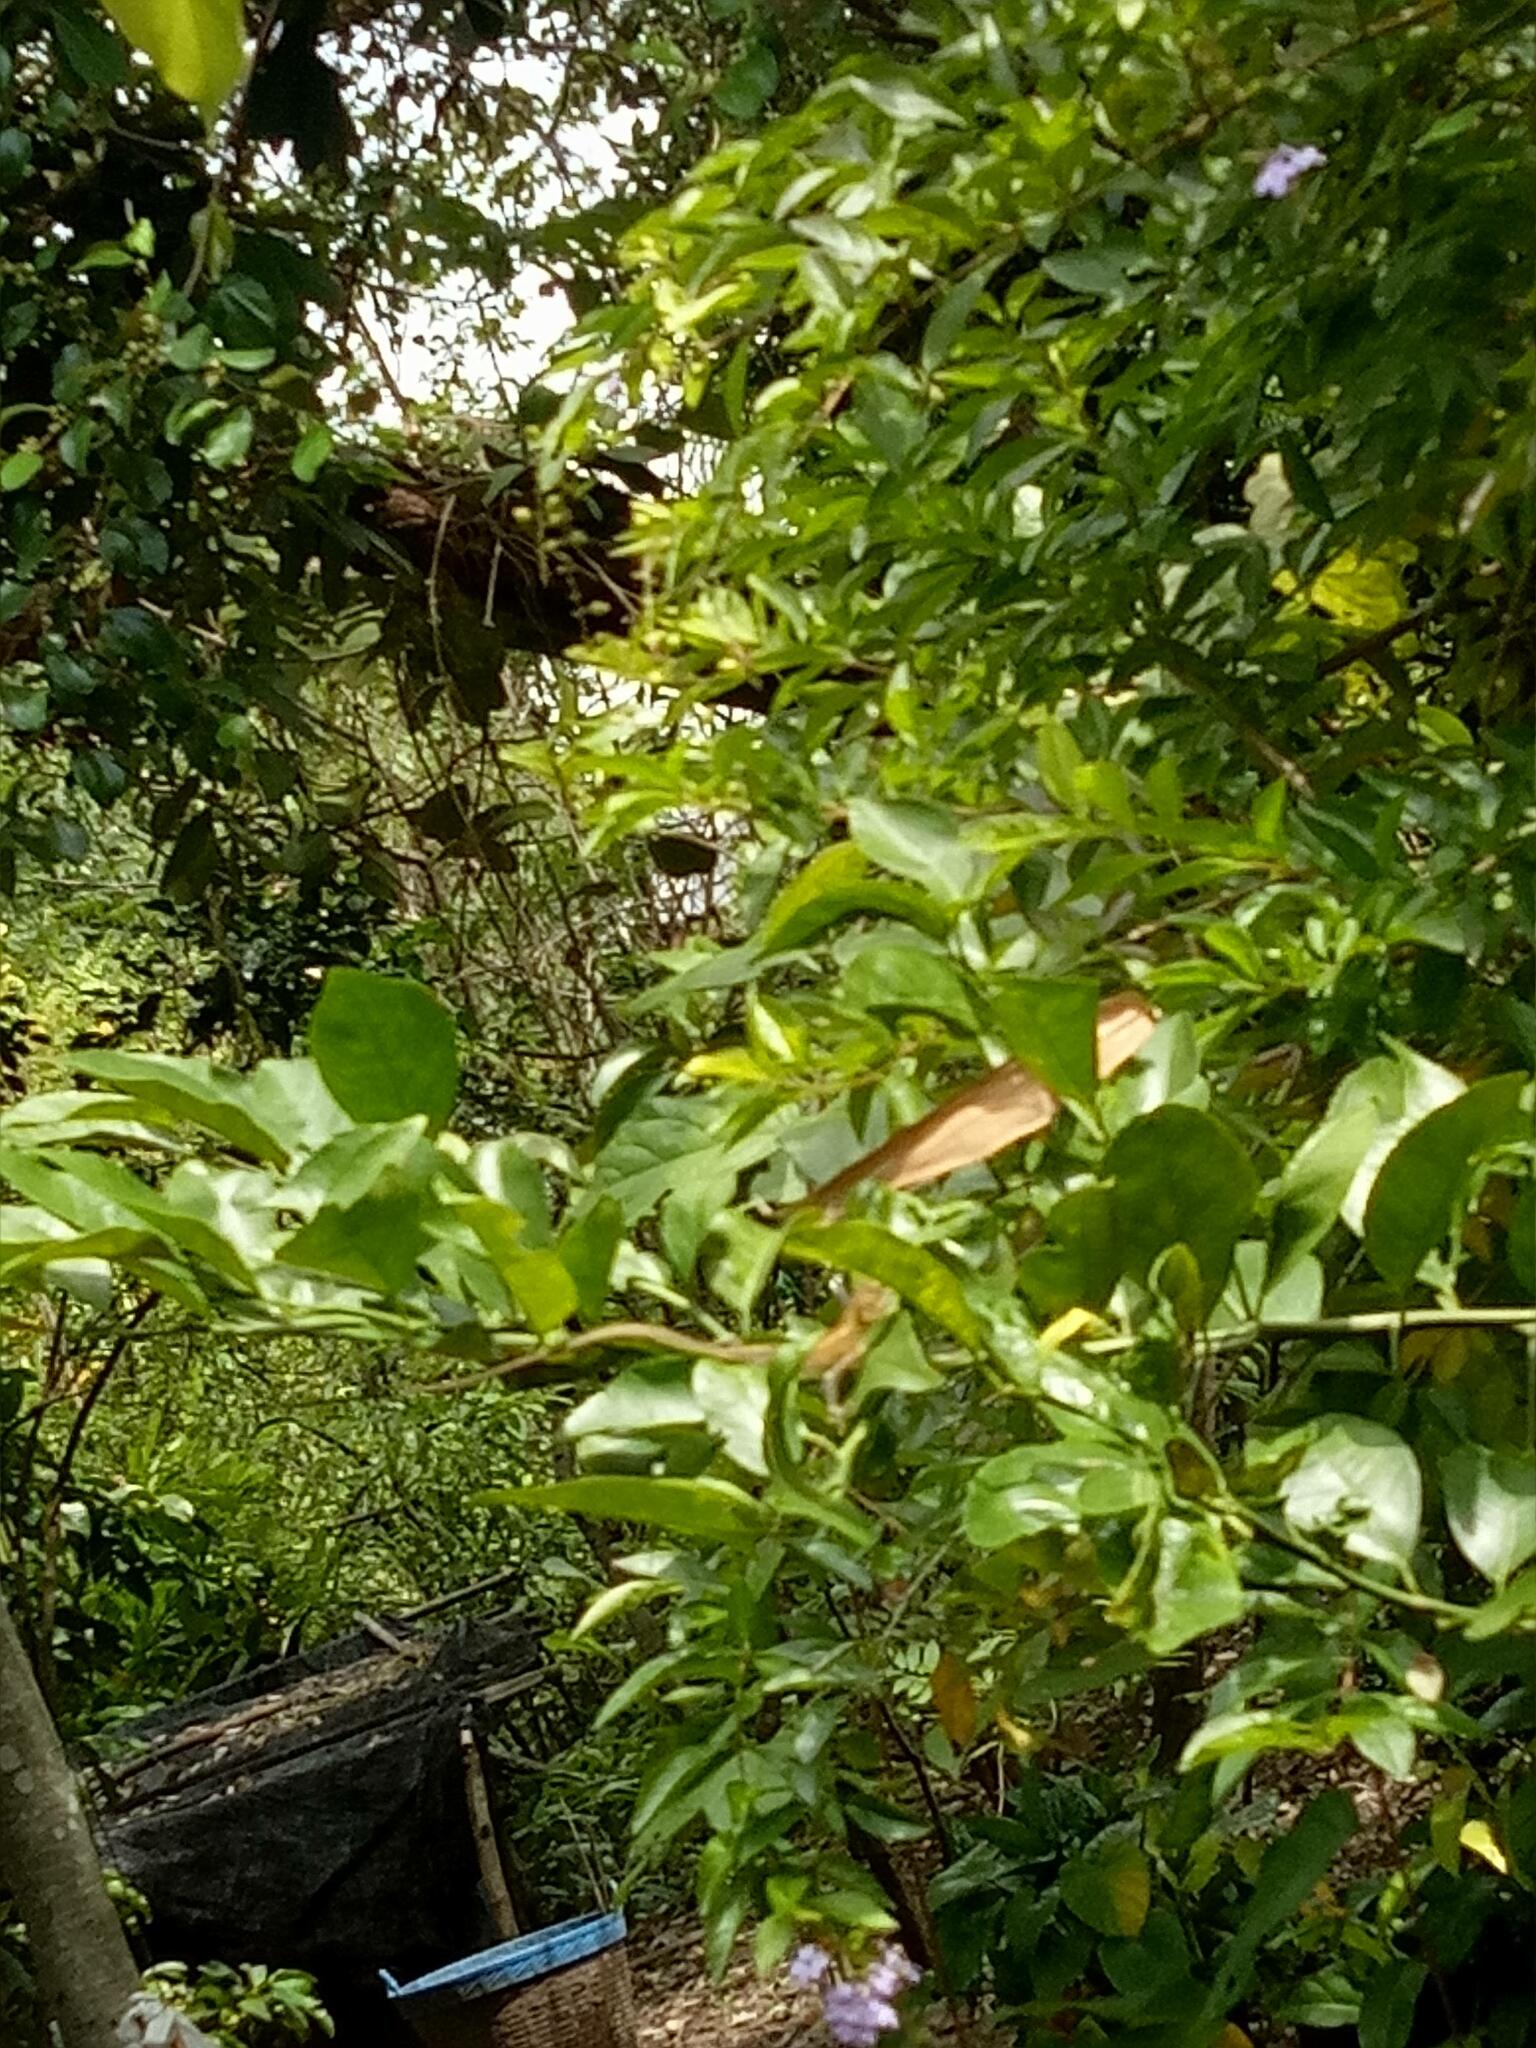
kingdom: Animalia
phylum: Chordata
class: Squamata
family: Agamidae
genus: Calotes
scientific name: Calotes versicolor
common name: Oriental garden lizard
